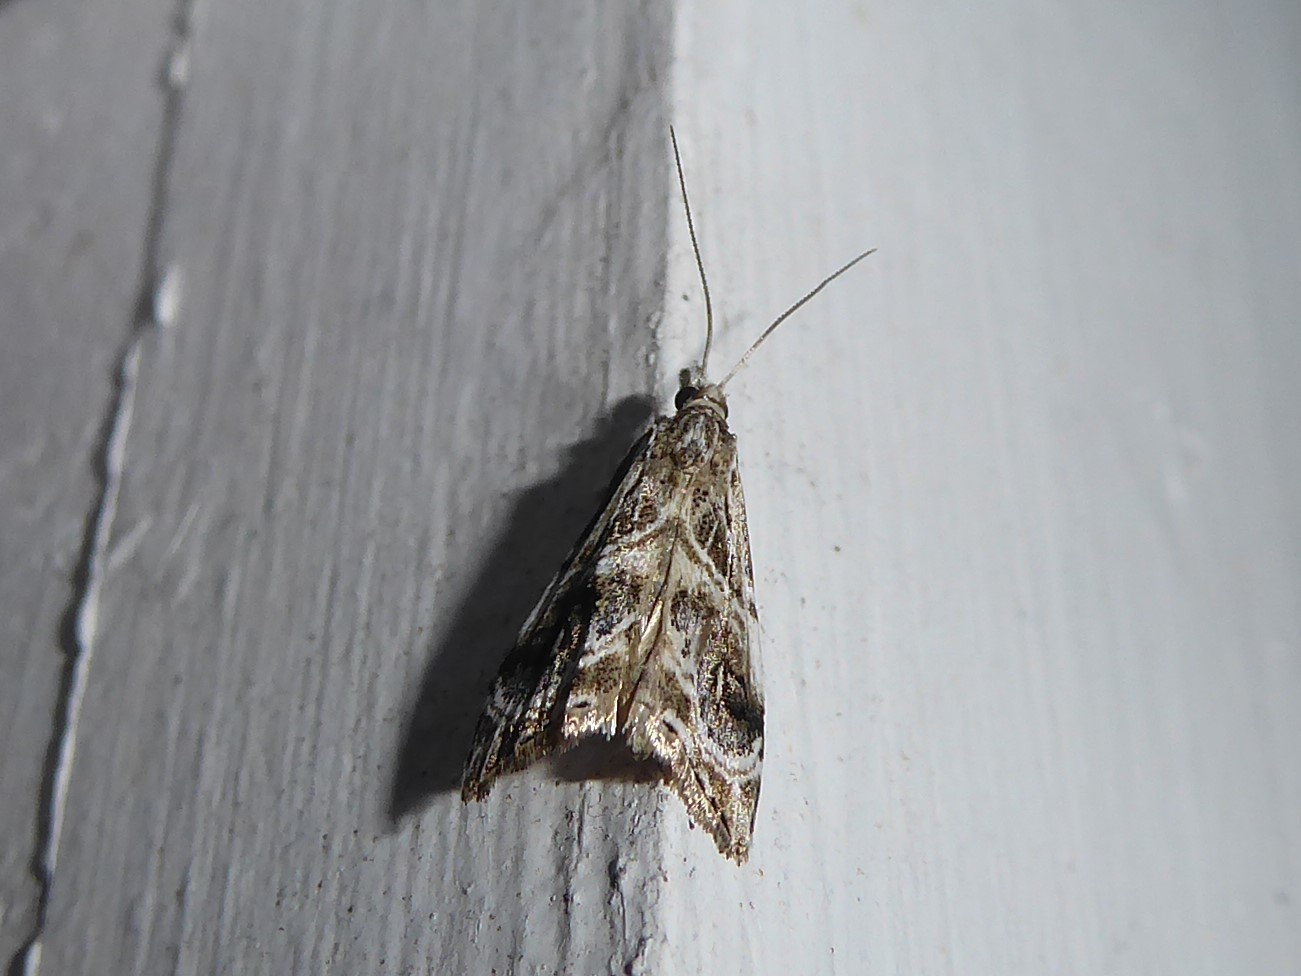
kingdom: Animalia
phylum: Arthropoda
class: Insecta
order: Lepidoptera
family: Crambidae
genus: Gadira
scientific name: Gadira acerella
